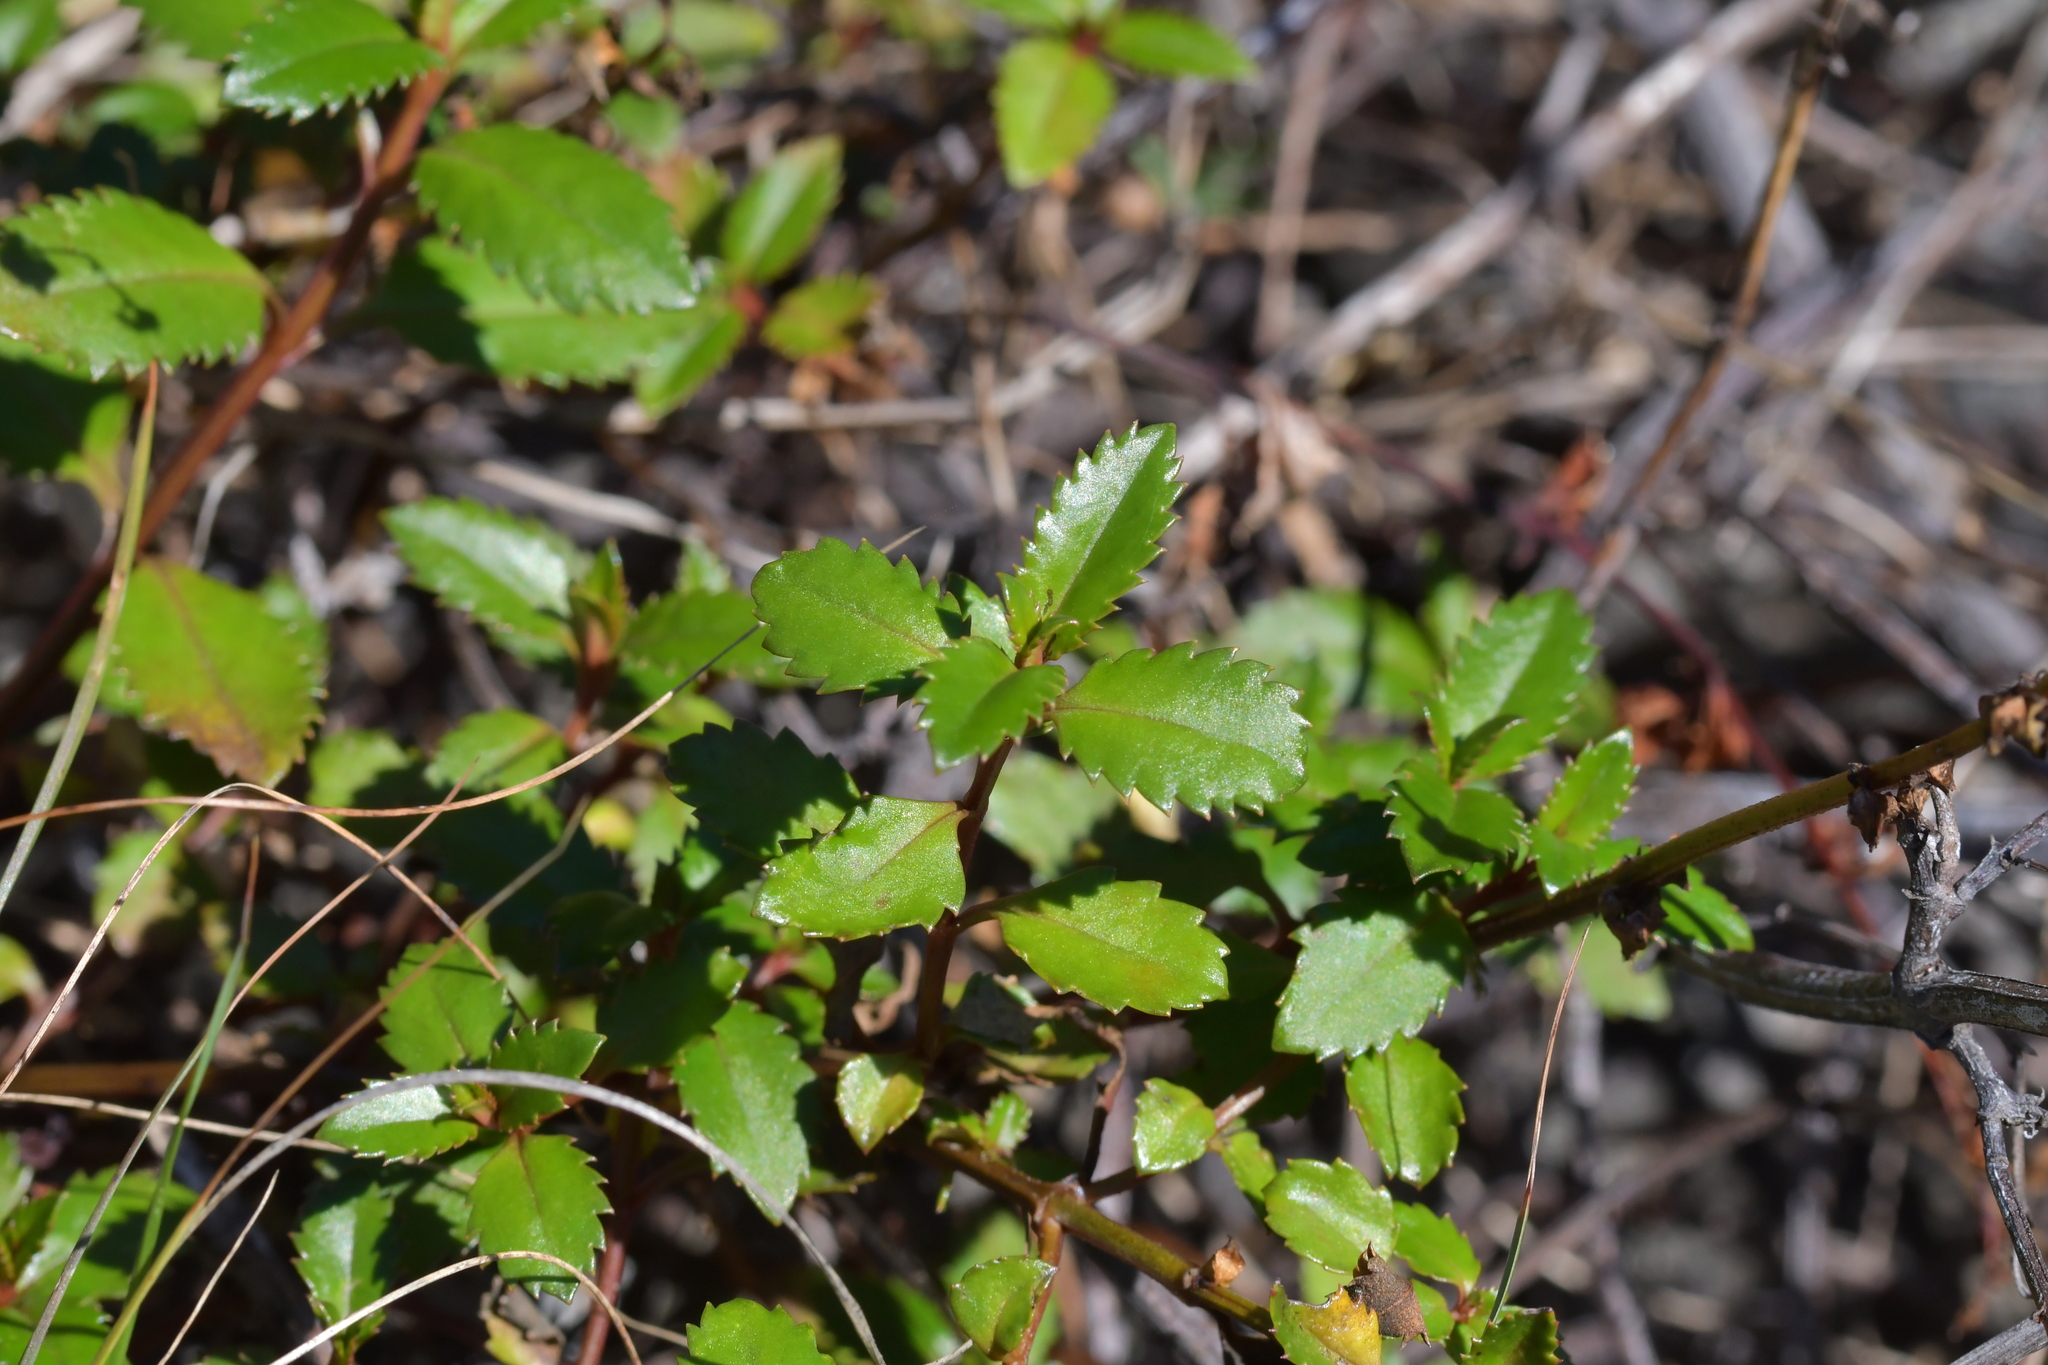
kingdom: Plantae
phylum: Tracheophyta
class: Magnoliopsida
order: Saxifragales
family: Haloragaceae
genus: Haloragis
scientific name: Haloragis erecta
